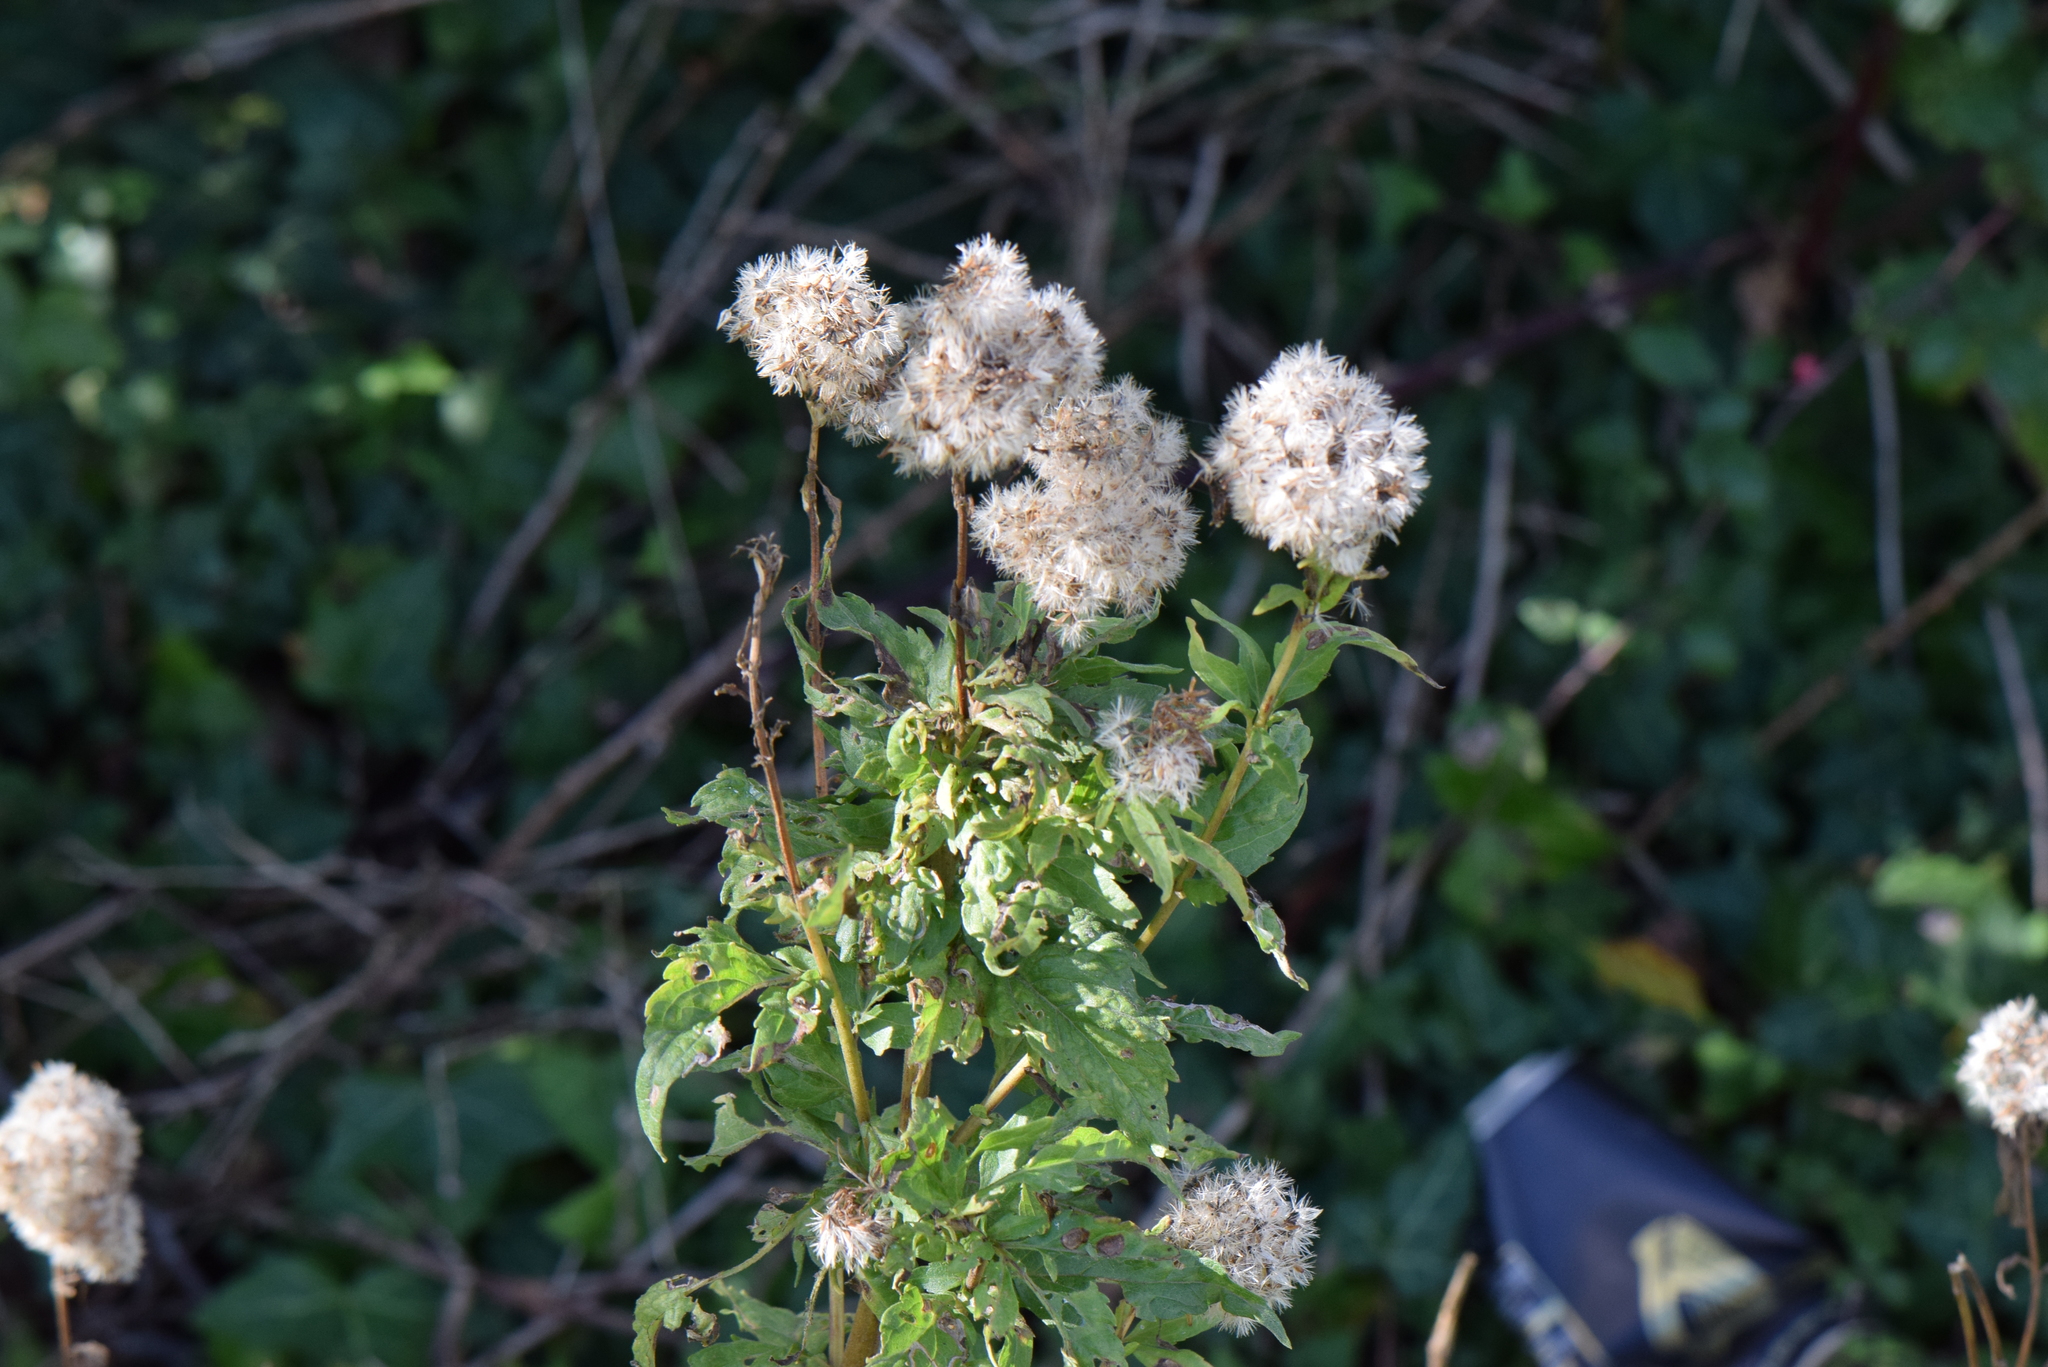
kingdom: Plantae
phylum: Tracheophyta
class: Magnoliopsida
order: Asterales
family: Asteraceae
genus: Eupatorium
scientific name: Eupatorium cannabinum
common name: Hemp-agrimony
